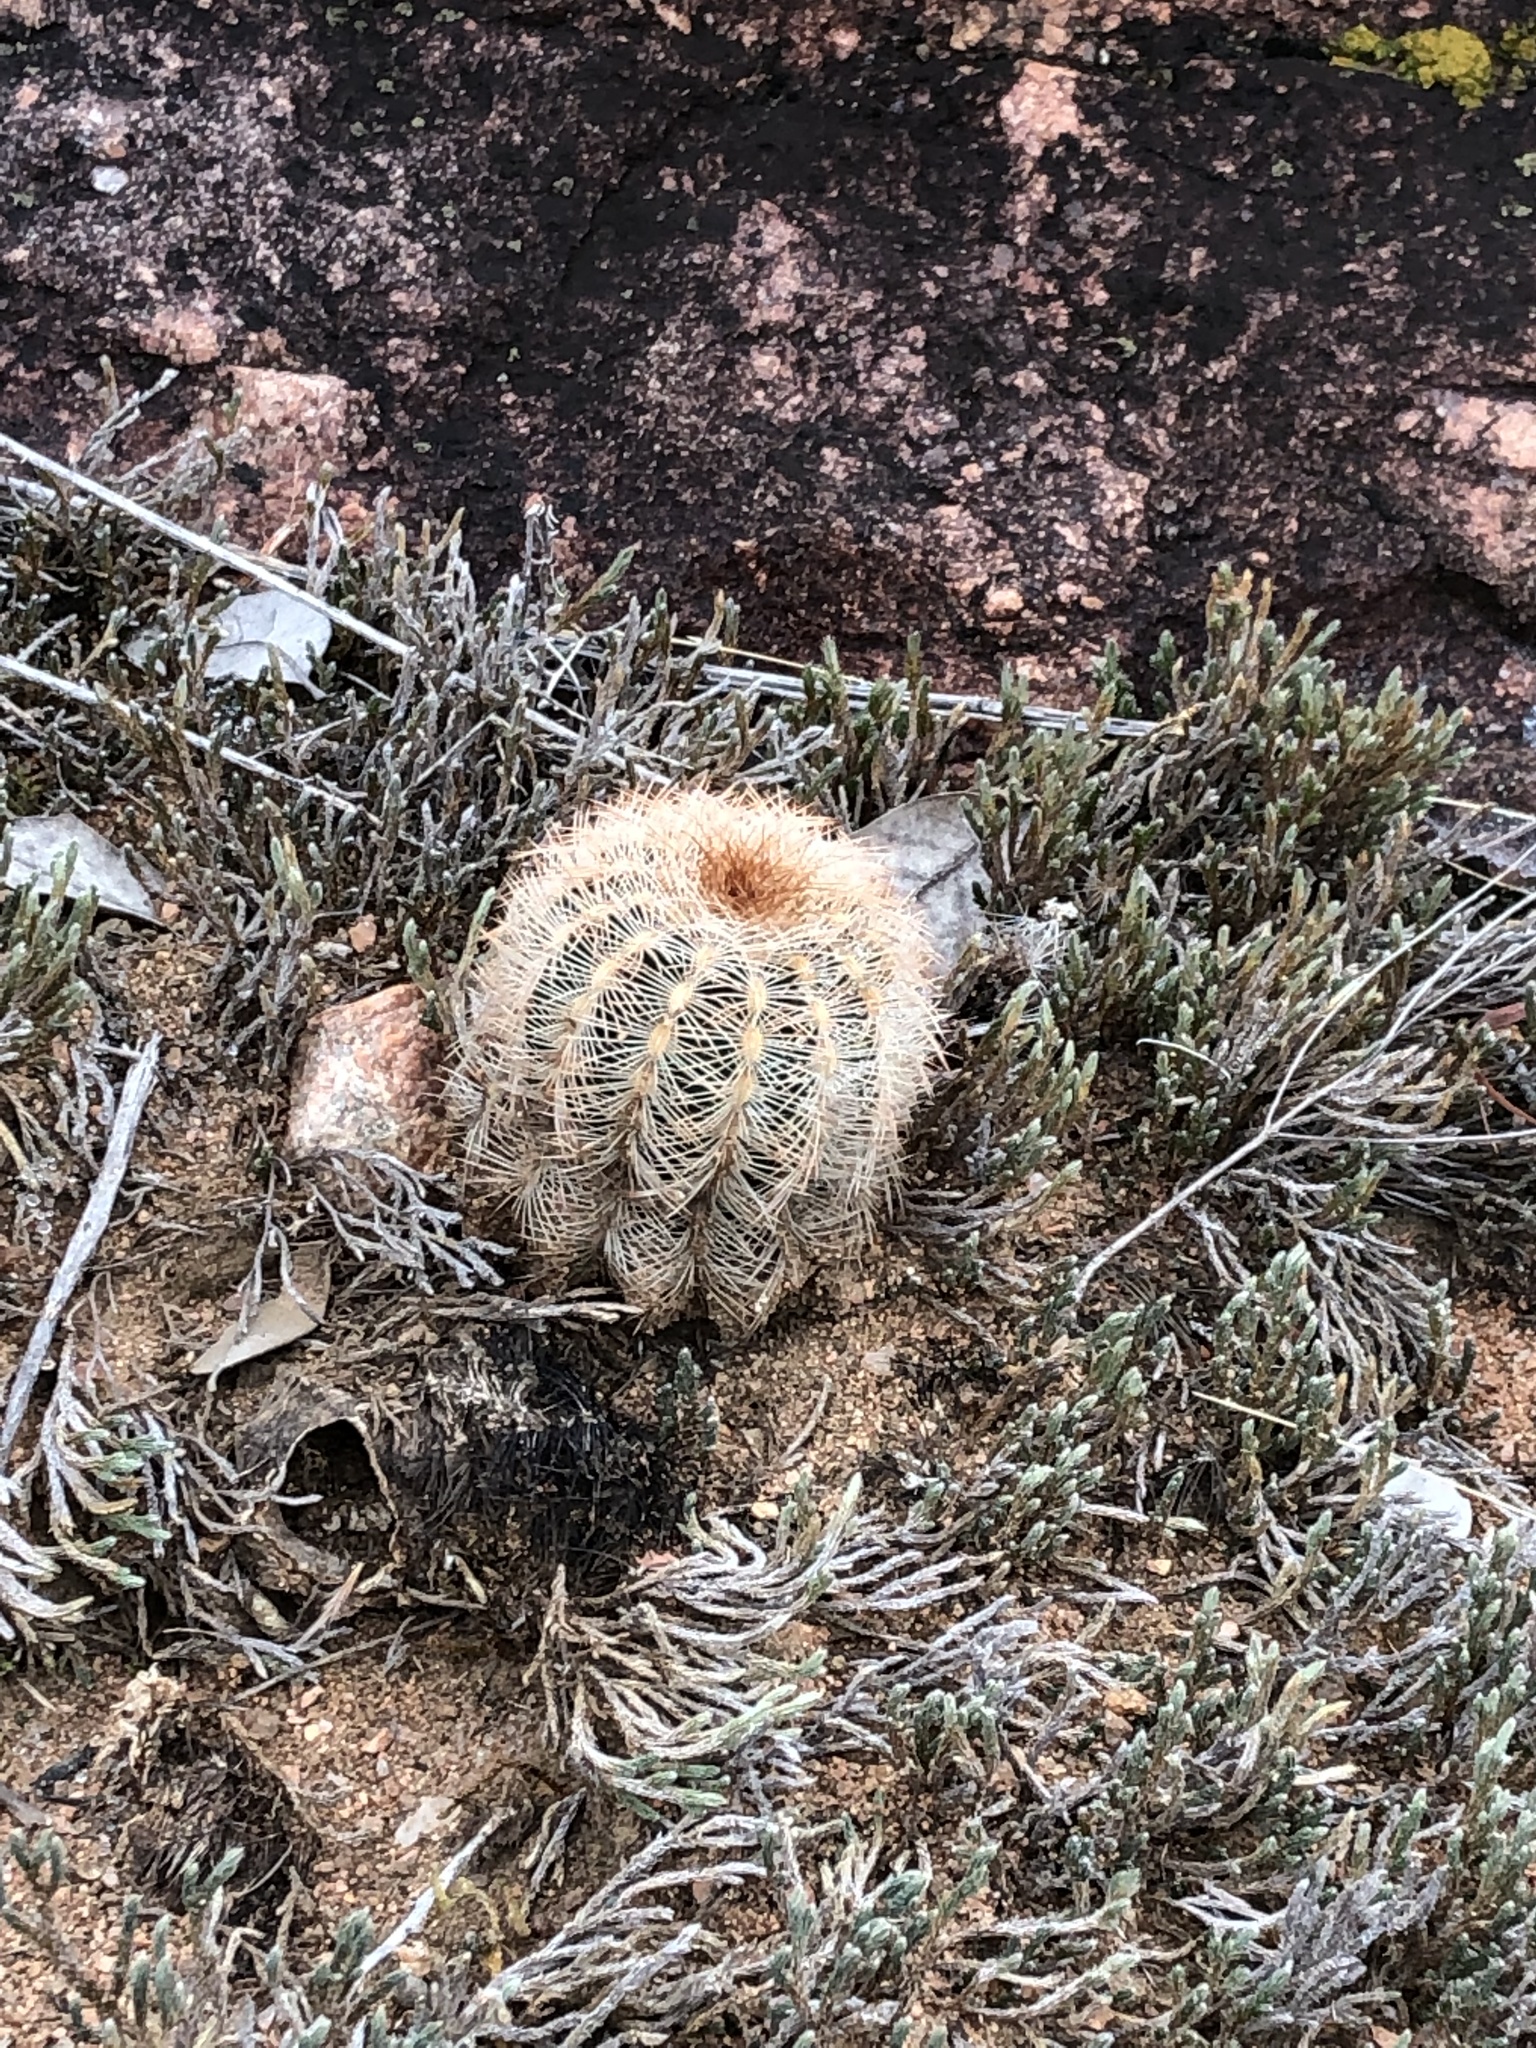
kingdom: Plantae
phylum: Tracheophyta
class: Magnoliopsida
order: Caryophyllales
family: Cactaceae
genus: Echinocereus
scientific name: Echinocereus reichenbachii
